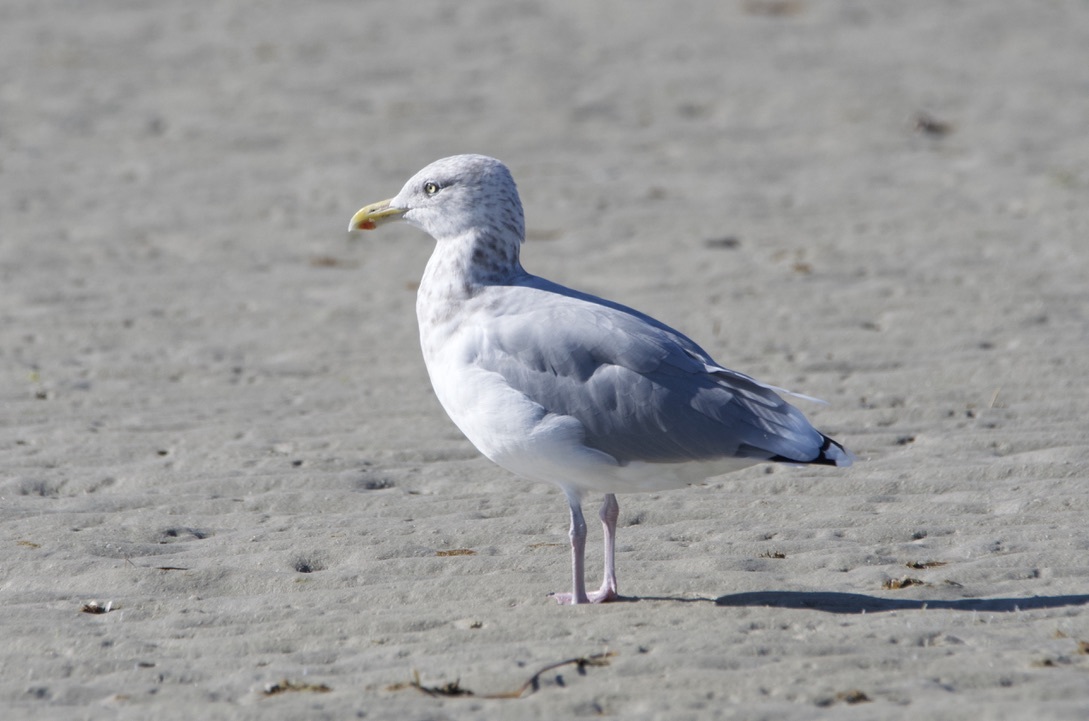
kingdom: Animalia
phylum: Chordata
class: Aves
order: Charadriiformes
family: Laridae
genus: Larus
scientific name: Larus argentatus
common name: Herring gull
